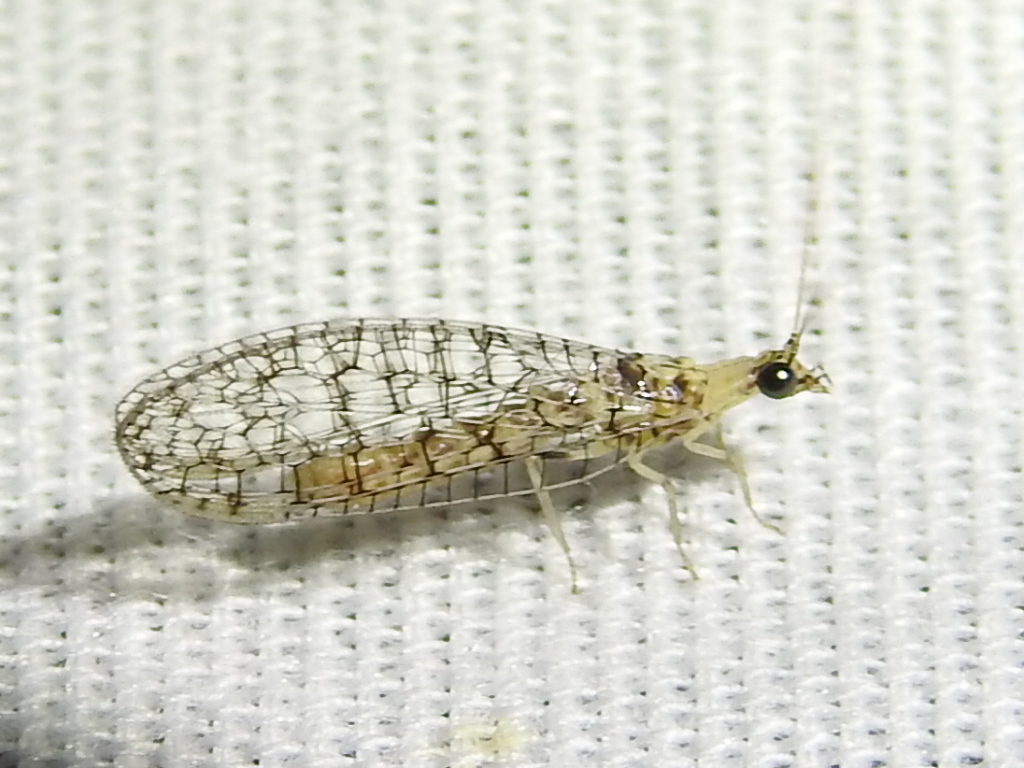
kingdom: Animalia
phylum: Arthropoda
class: Insecta
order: Neuroptera
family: Chrysopidae
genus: Eremochrysa
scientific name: Eremochrysa tibialis
